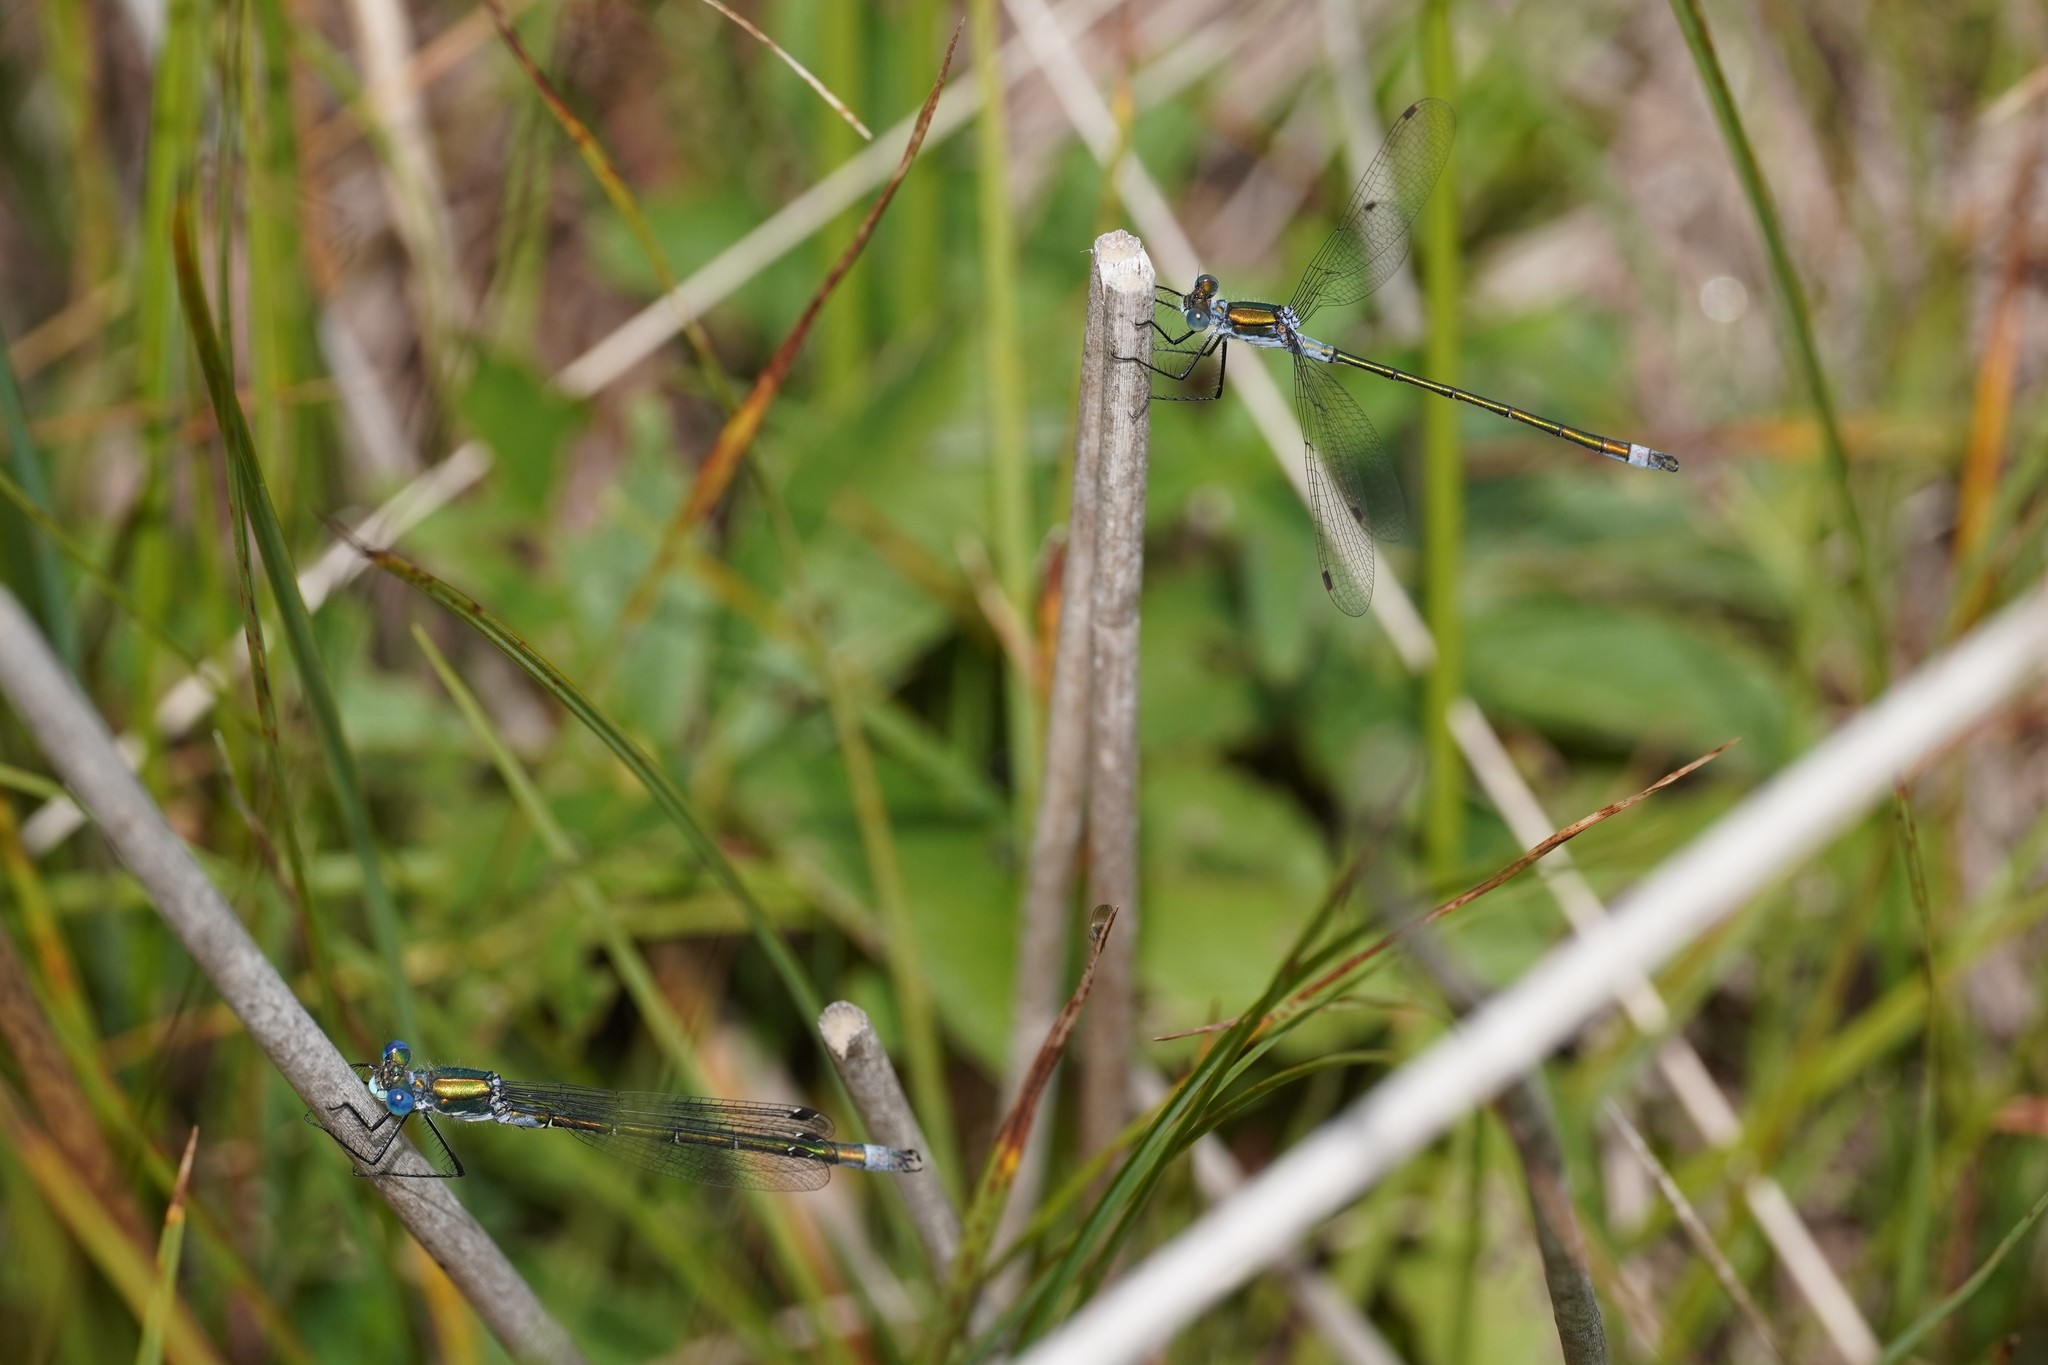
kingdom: Animalia
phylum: Arthropoda
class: Insecta
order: Odonata
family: Lestidae
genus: Lestes
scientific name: Lestes dryas
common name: Scarce emerald damselfly
